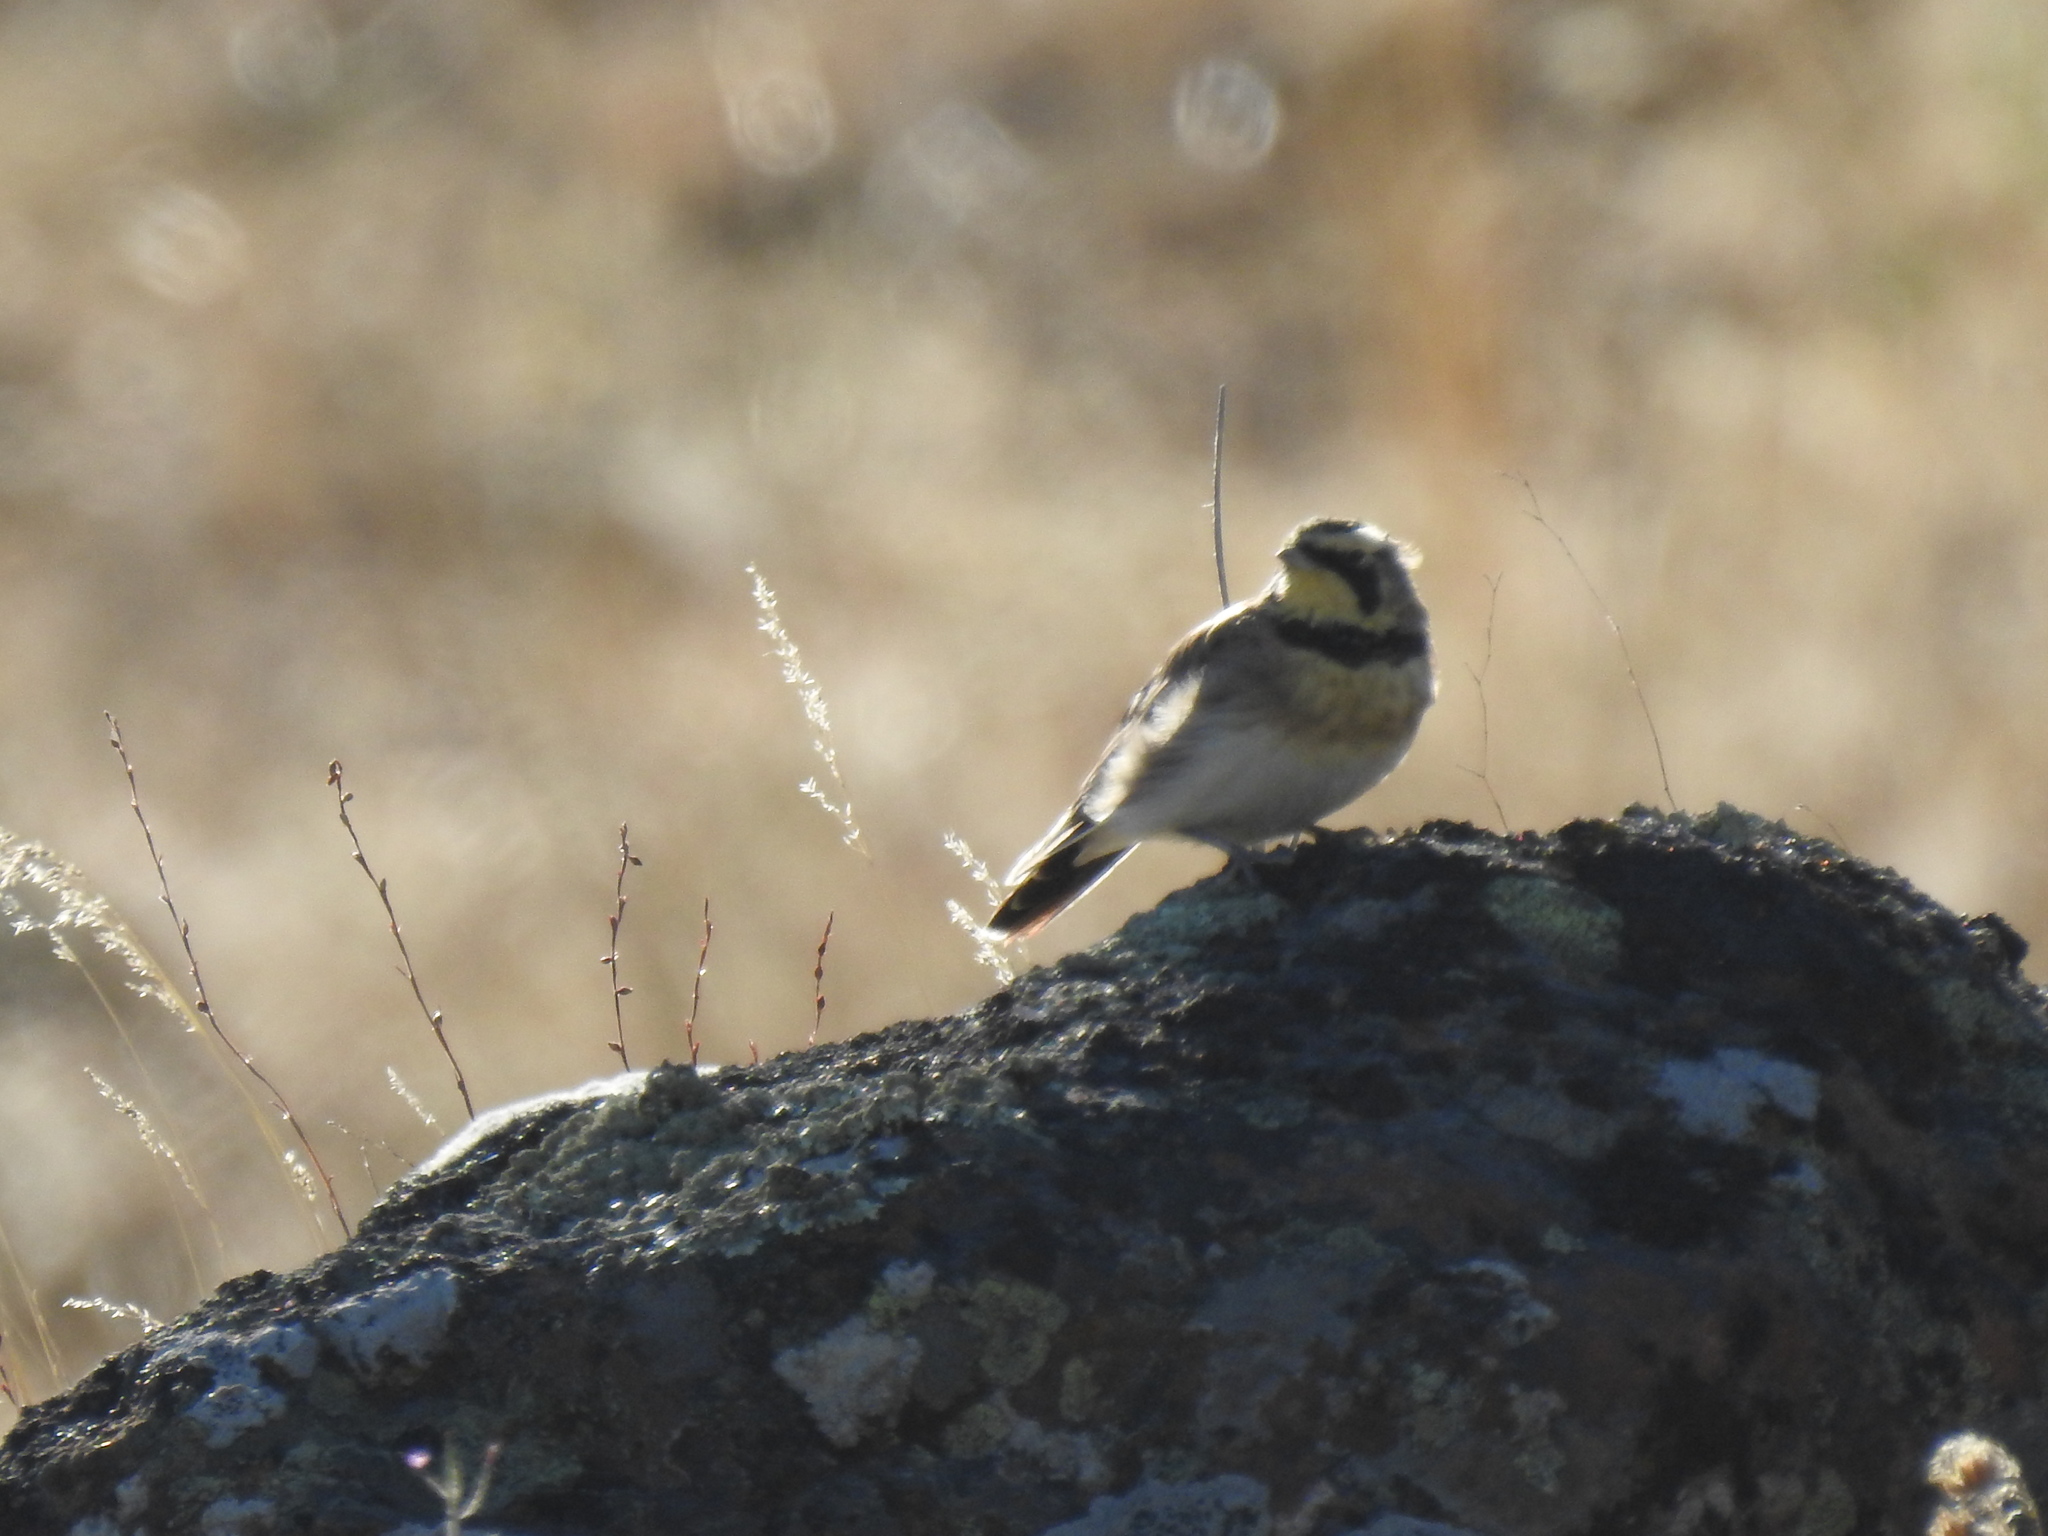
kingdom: Animalia
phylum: Chordata
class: Aves
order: Passeriformes
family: Alaudidae
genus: Eremophila
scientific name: Eremophila alpestris
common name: Horned lark
